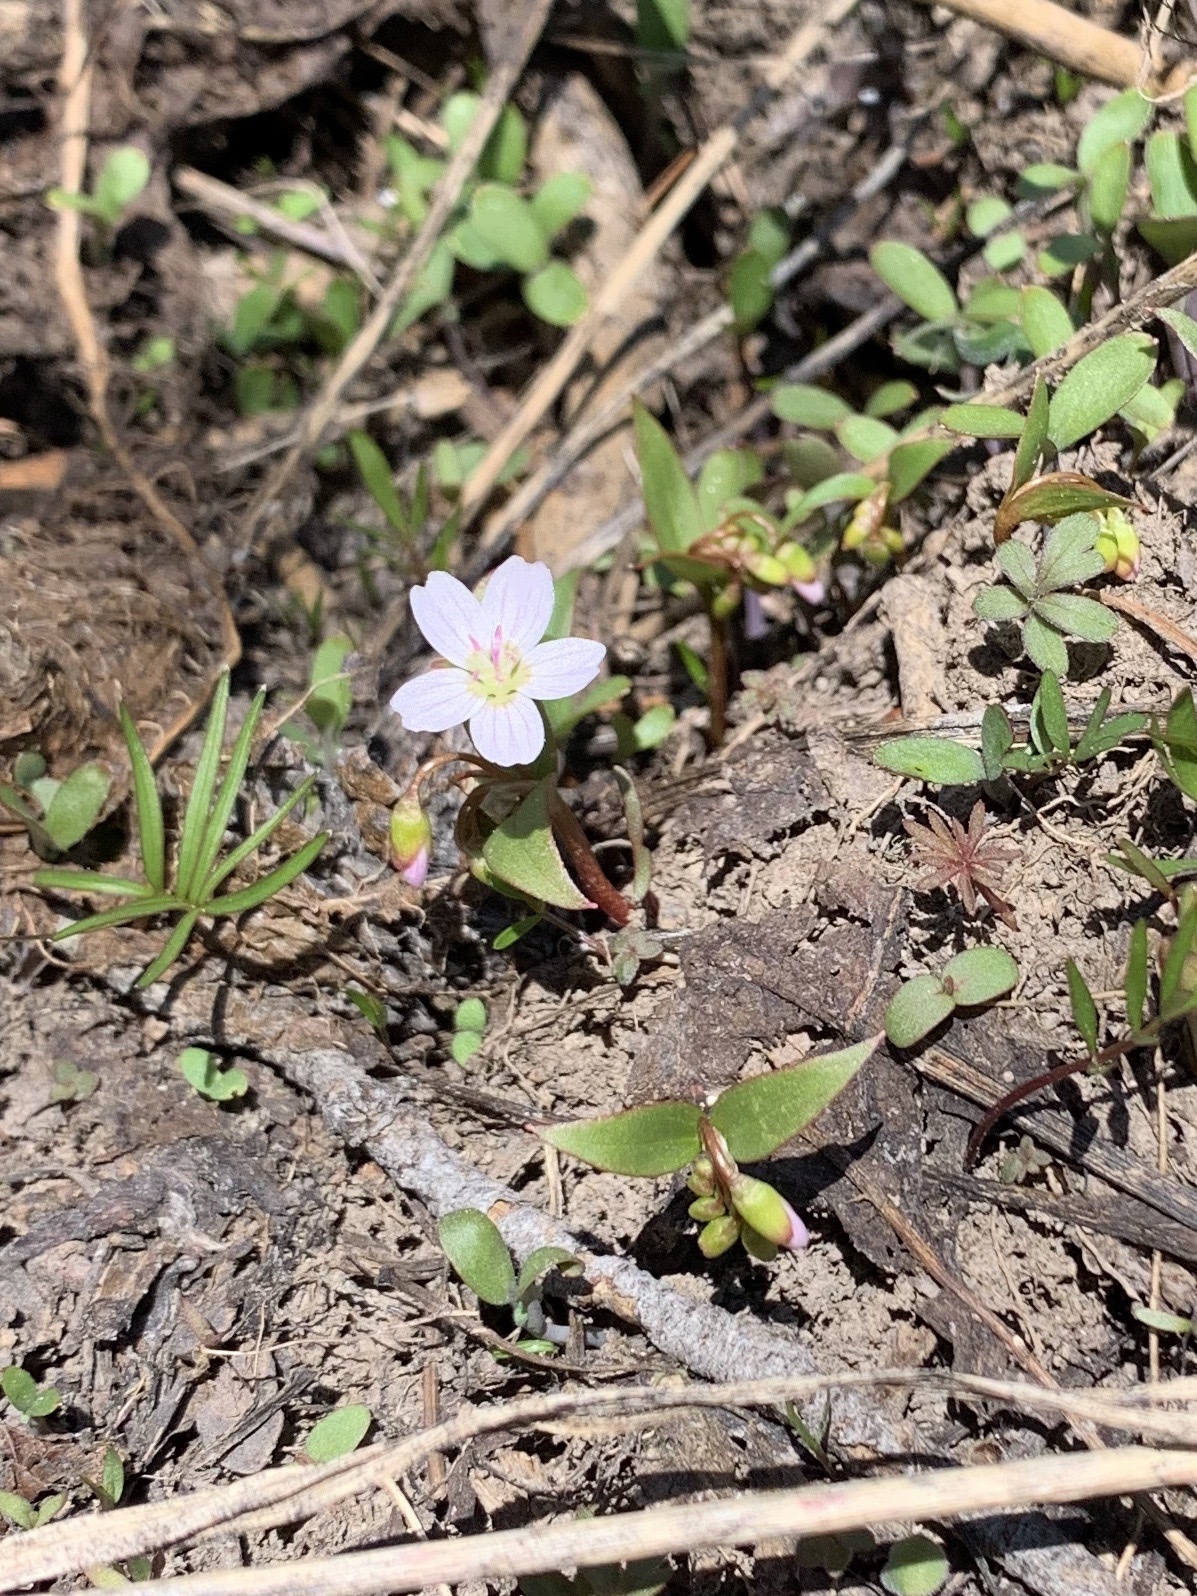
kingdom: Plantae
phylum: Tracheophyta
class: Magnoliopsida
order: Caryophyllales
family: Montiaceae
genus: Claytonia
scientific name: Claytonia lanceolata
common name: Western spring-beauty
